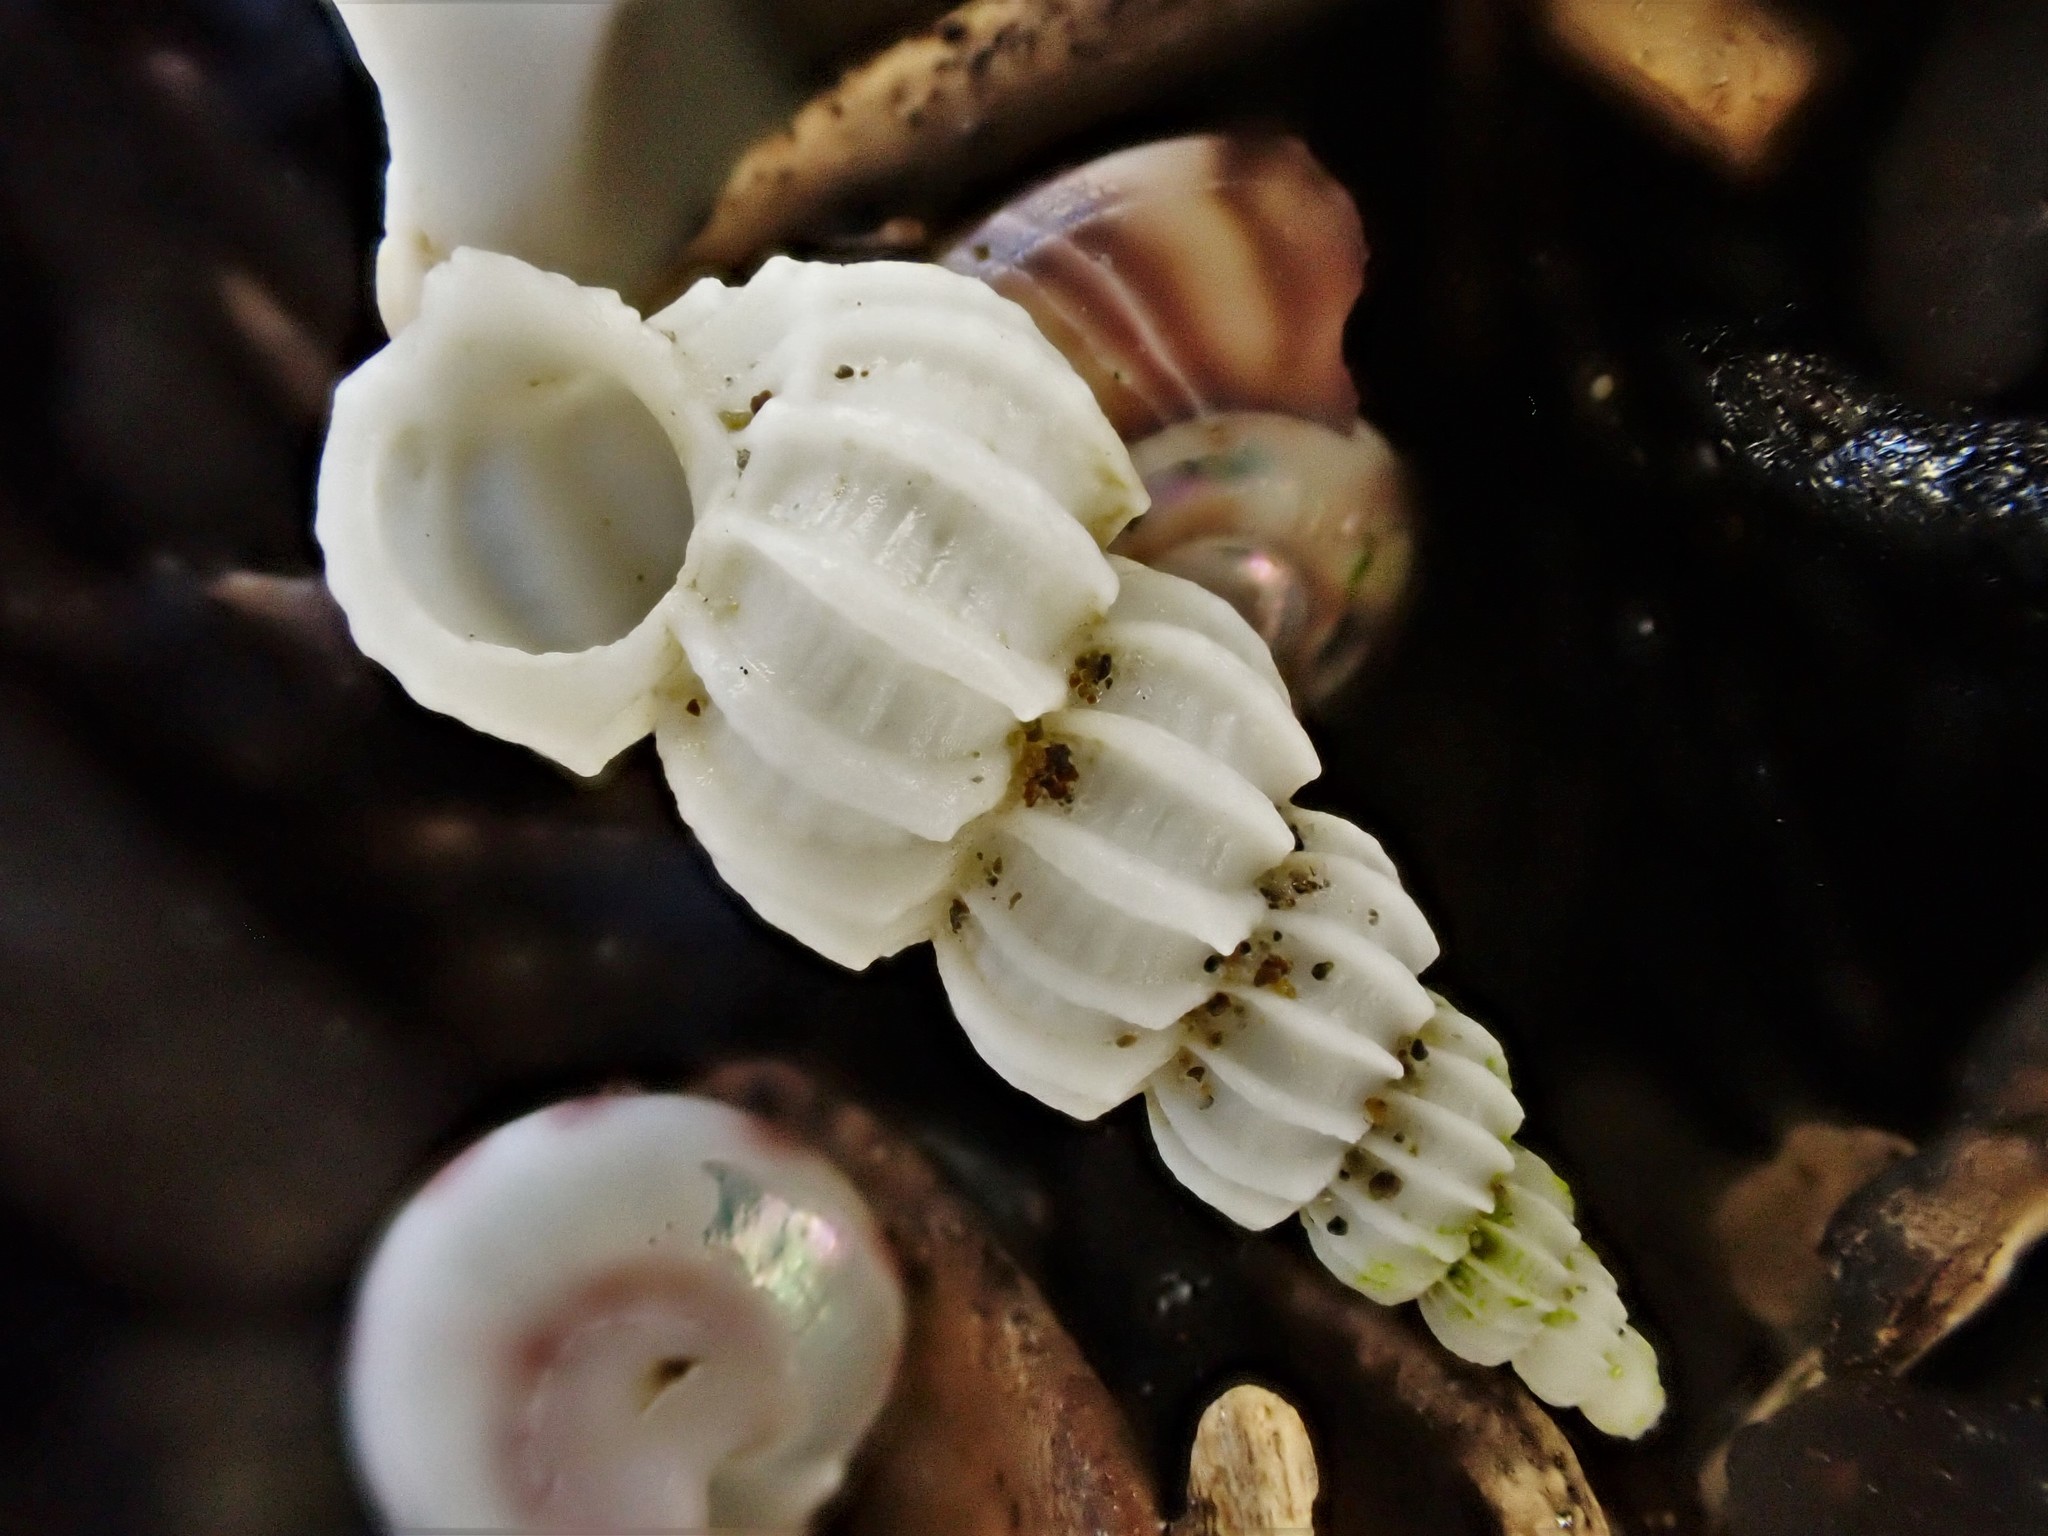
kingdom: Animalia
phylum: Mollusca
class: Gastropoda
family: Epitoniidae
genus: Cirsotrema
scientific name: Cirsotrema zelebori
